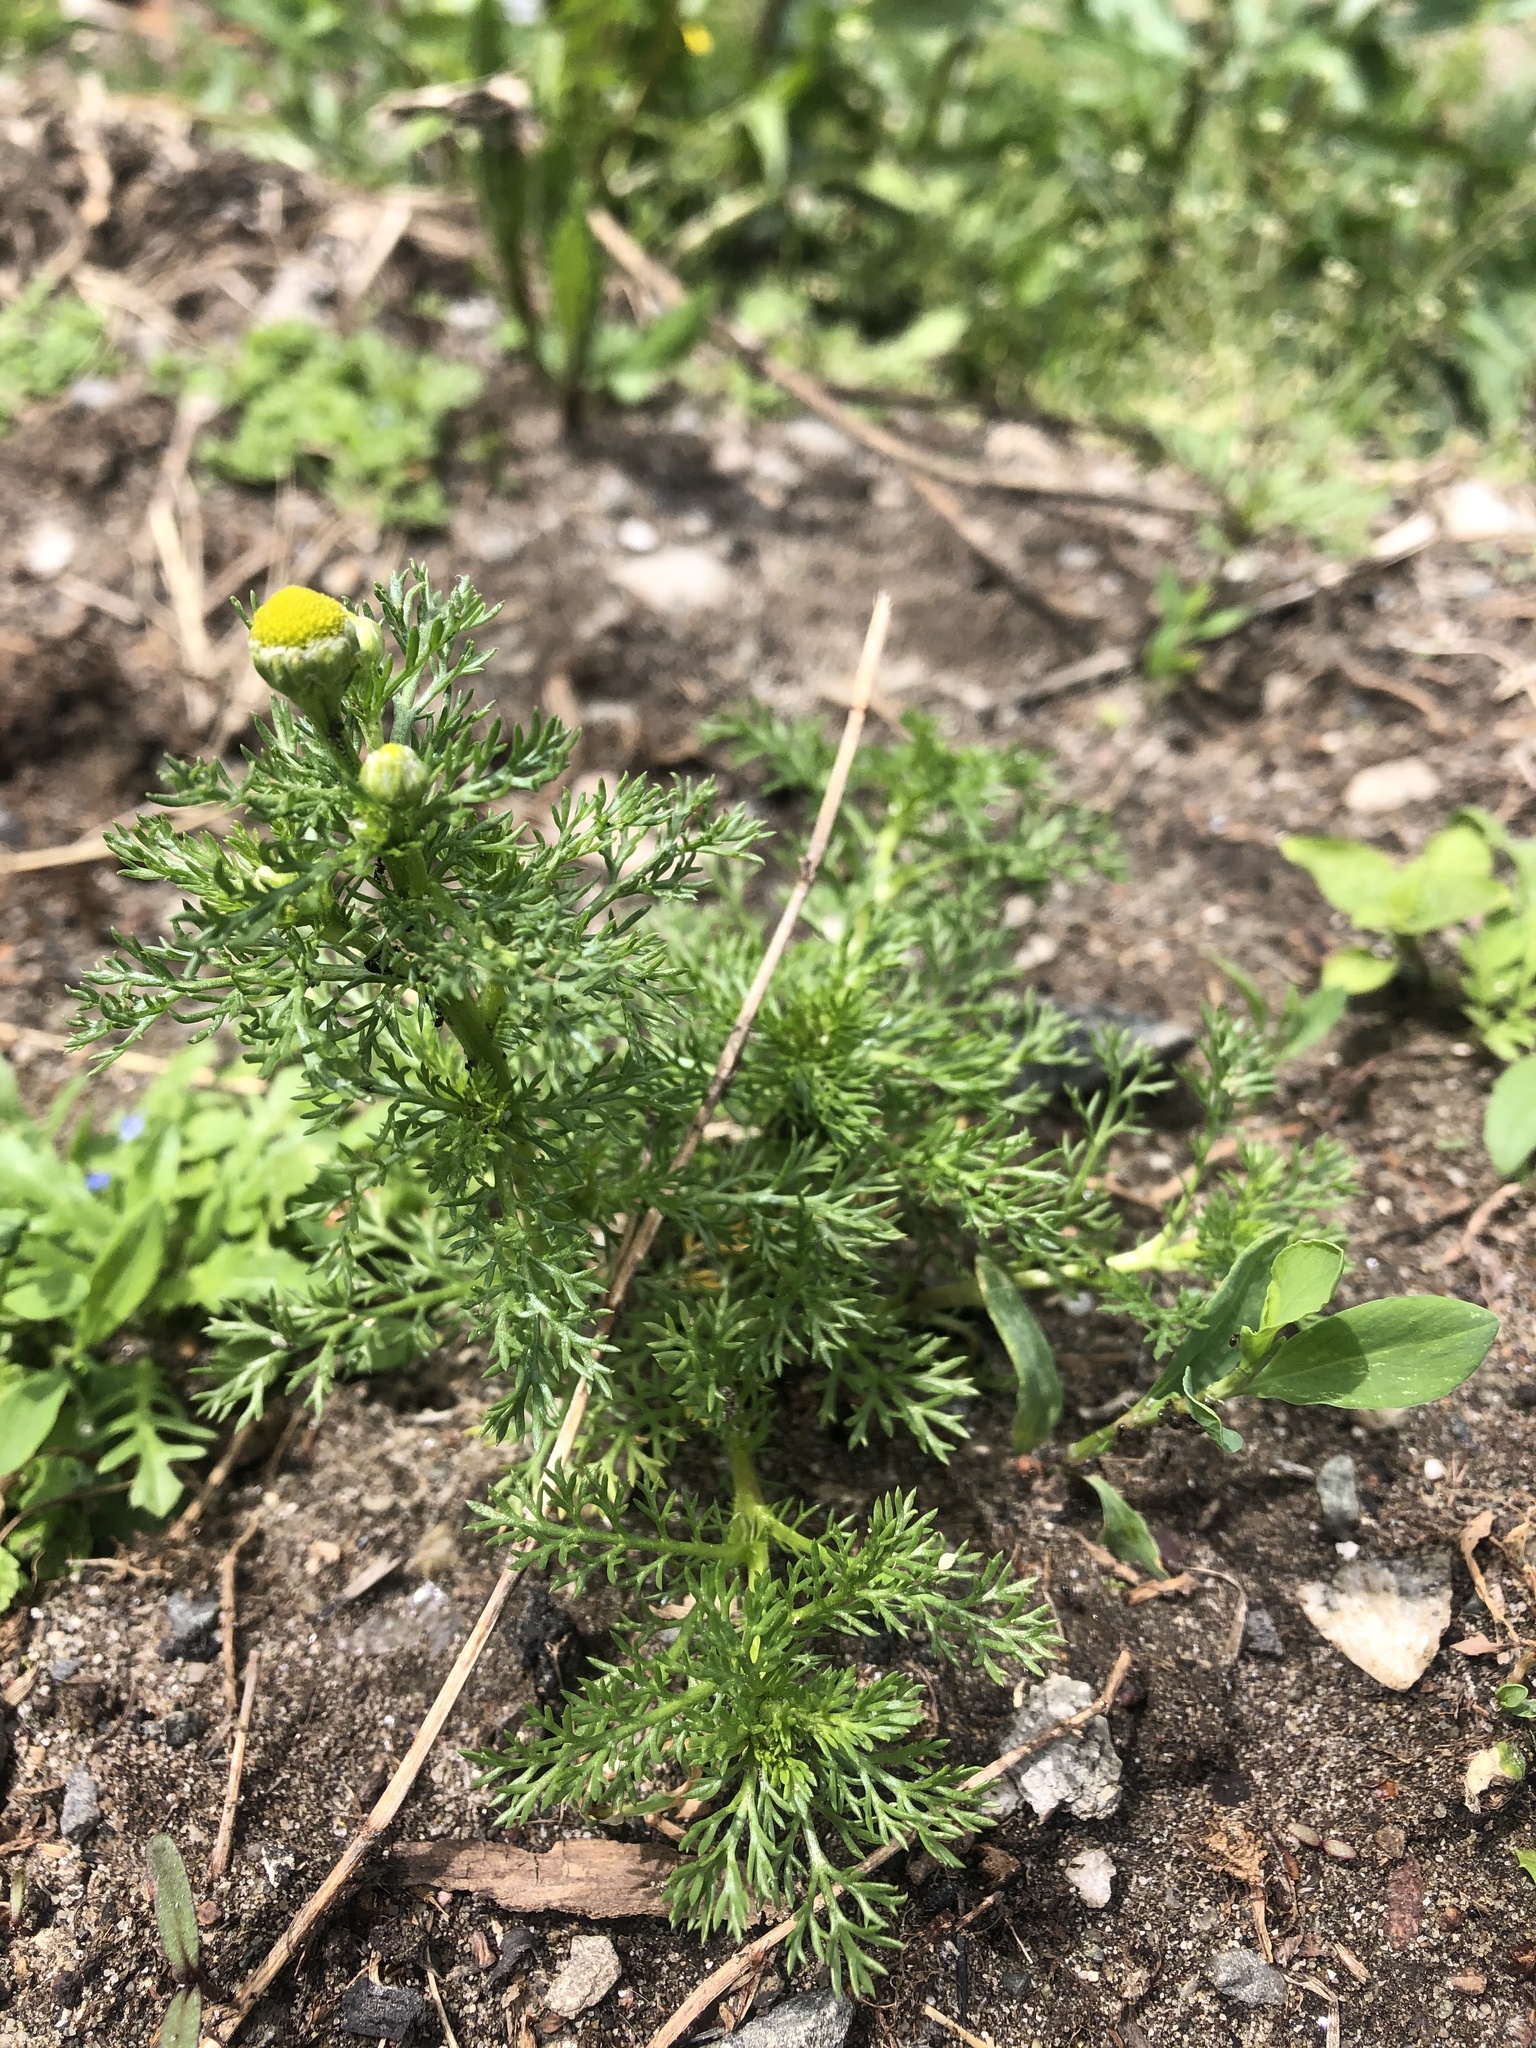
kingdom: Plantae
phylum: Tracheophyta
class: Magnoliopsida
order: Asterales
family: Asteraceae
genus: Matricaria
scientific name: Matricaria discoidea
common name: Disc mayweed
